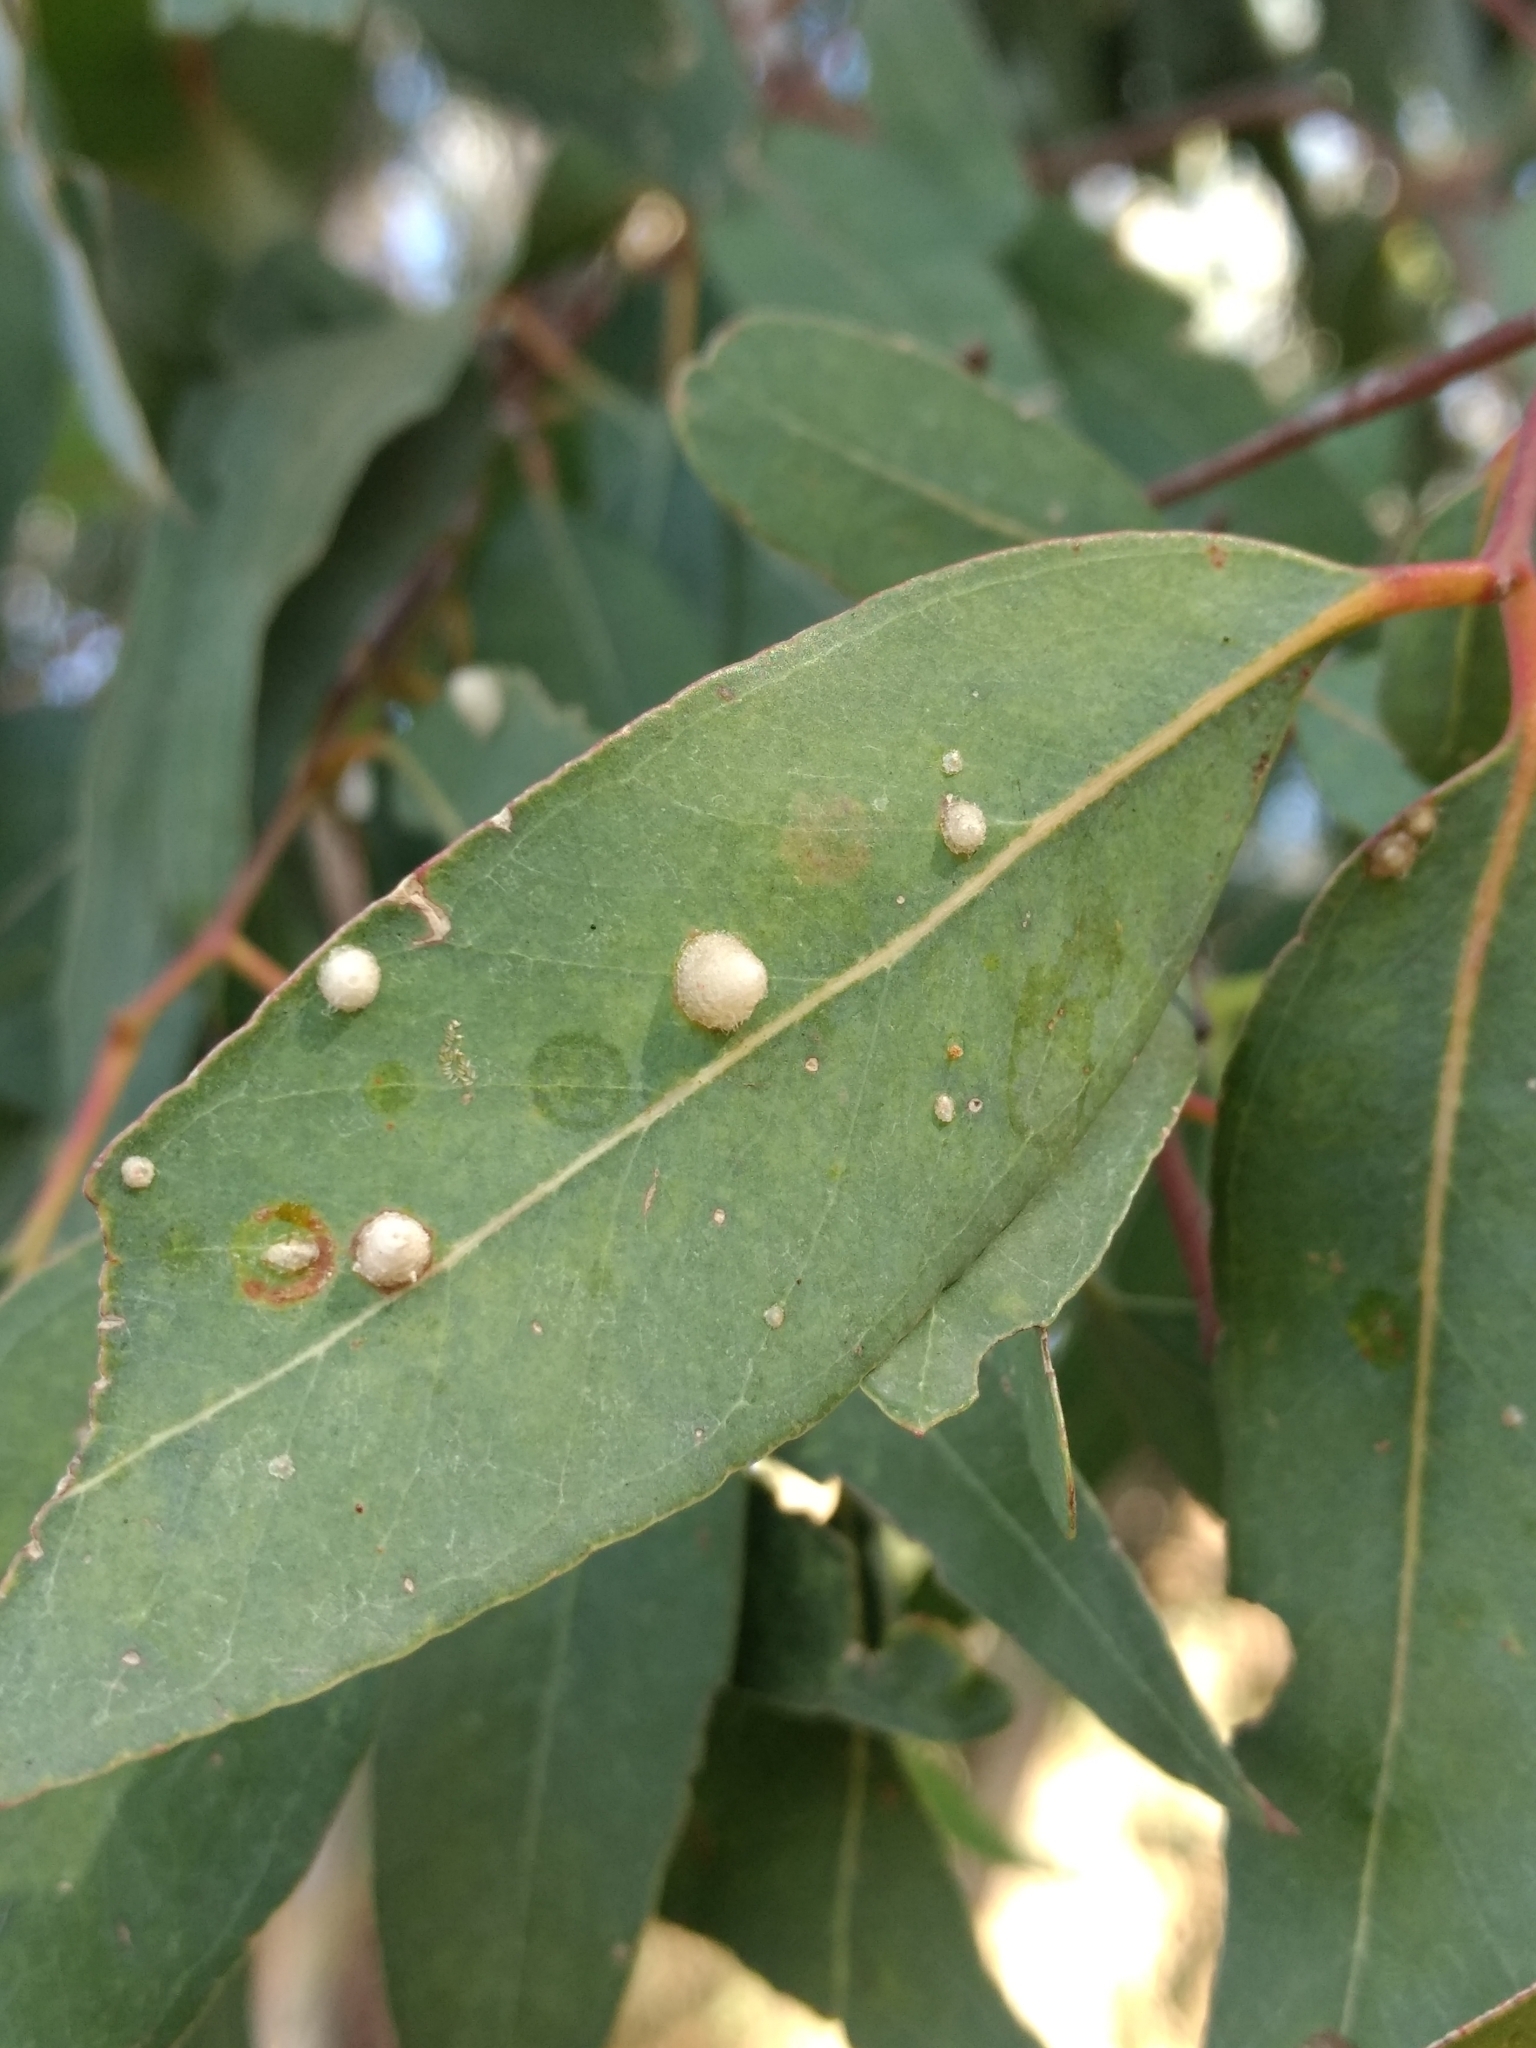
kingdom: Animalia
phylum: Arthropoda
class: Insecta
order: Hemiptera
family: Aphalaridae
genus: Glycaspis
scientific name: Glycaspis brimblecombei
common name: Red gum lerp psyllid
